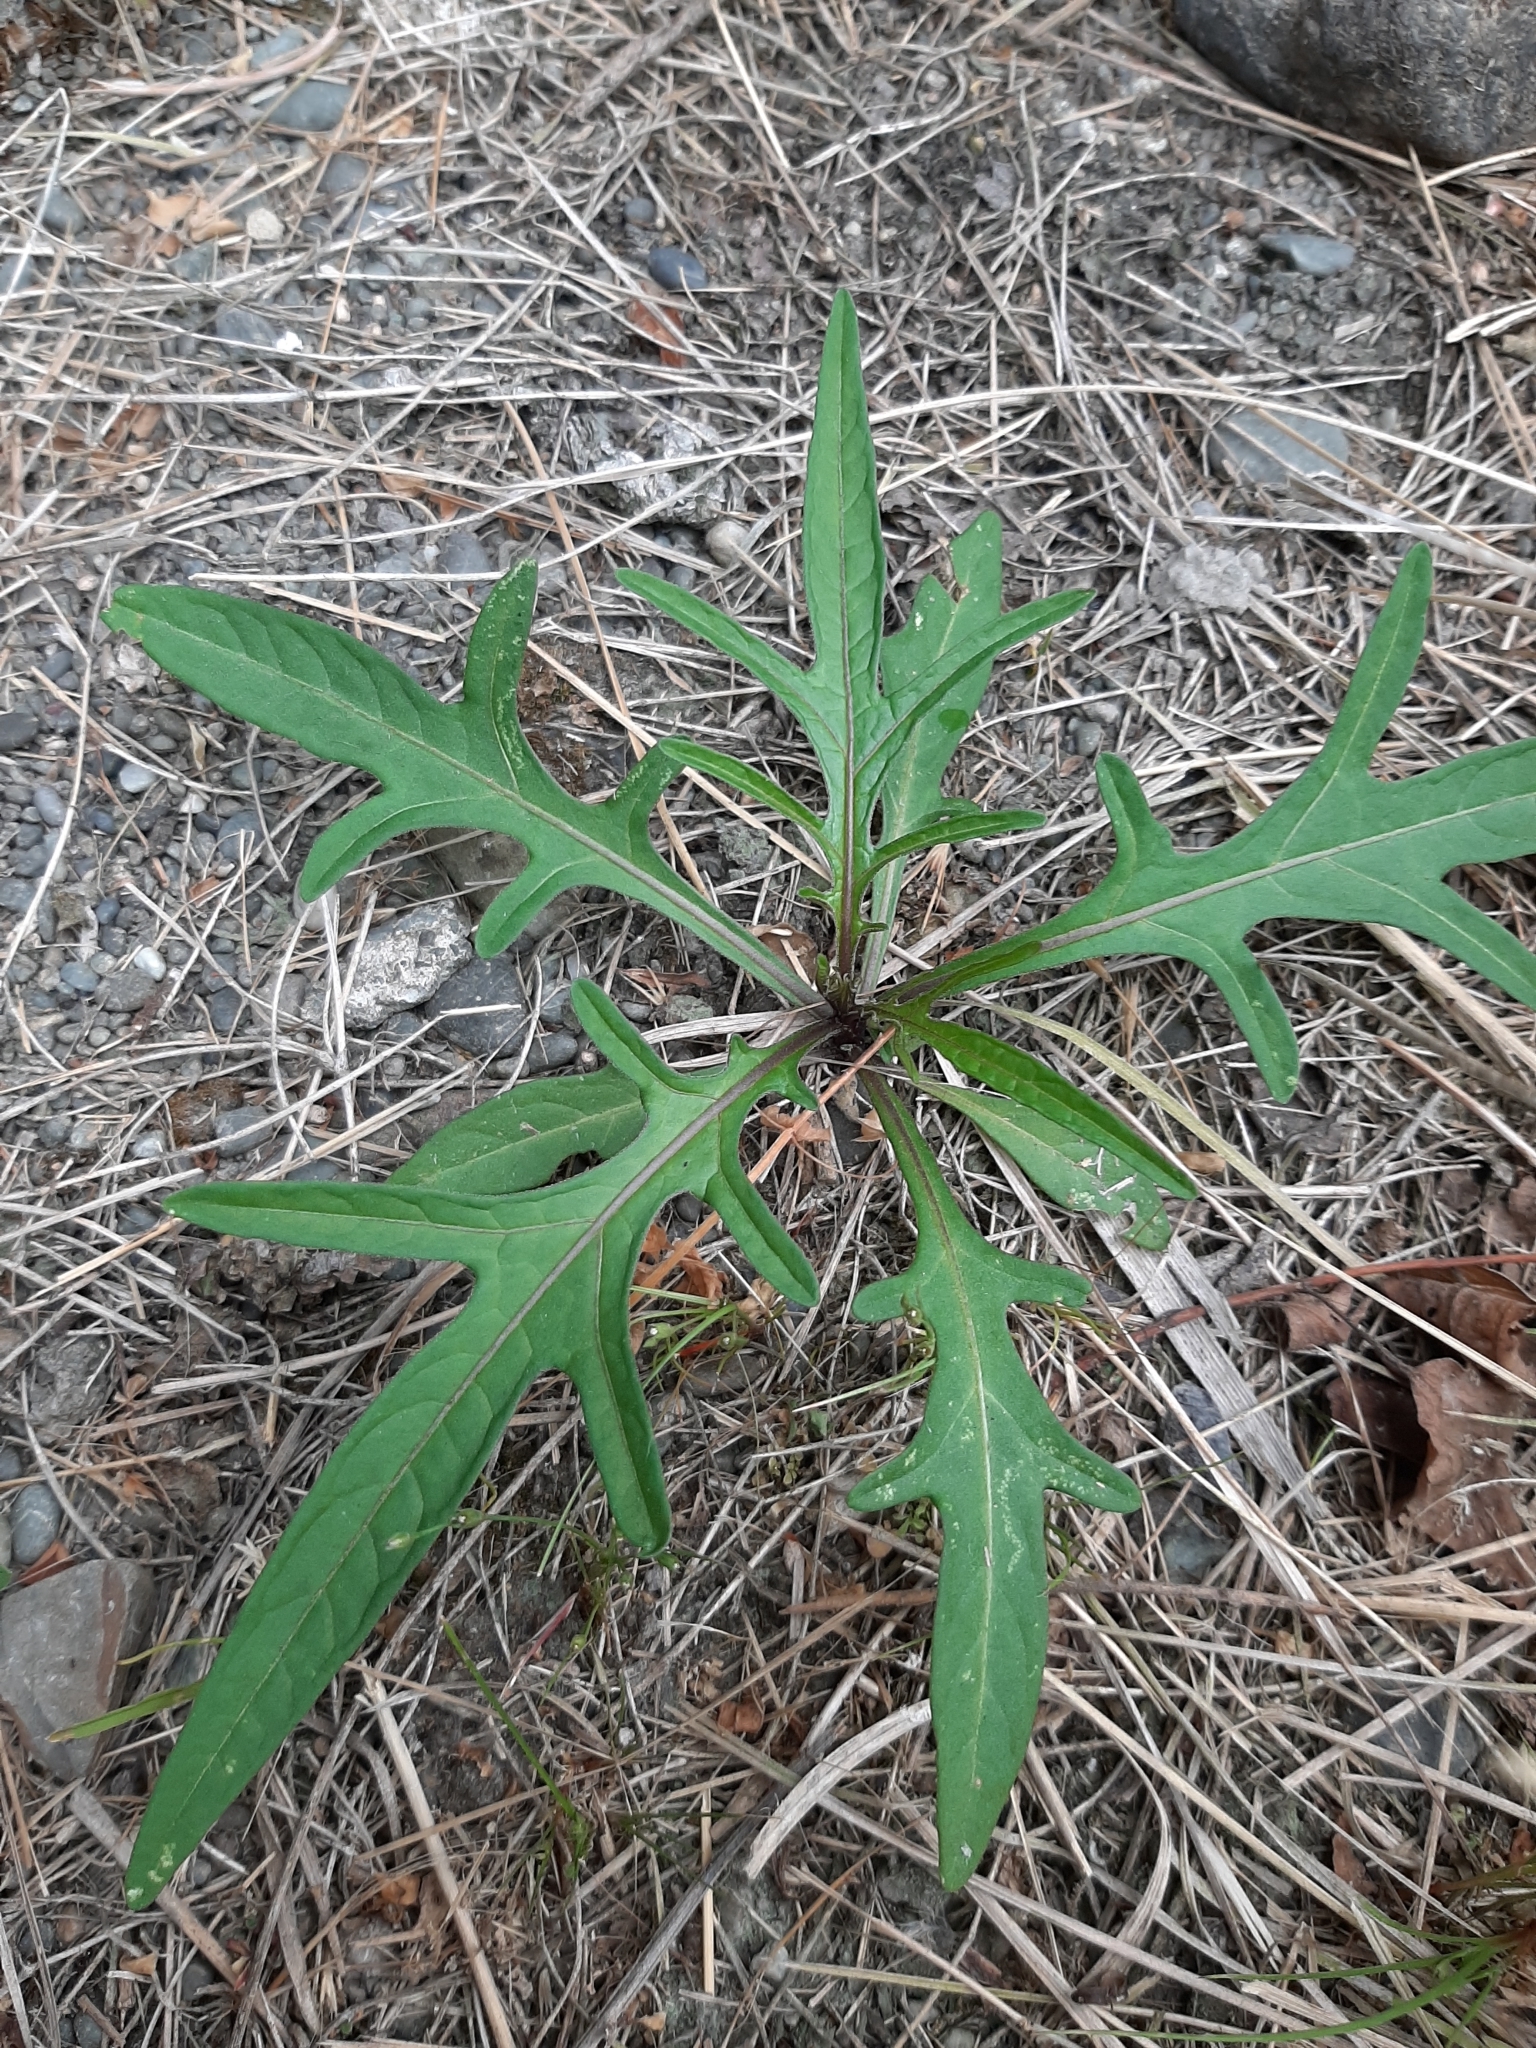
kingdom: Plantae
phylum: Tracheophyta
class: Magnoliopsida
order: Solanales
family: Solanaceae
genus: Solanum
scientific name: Solanum laciniatum
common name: Kangaroo-apple
